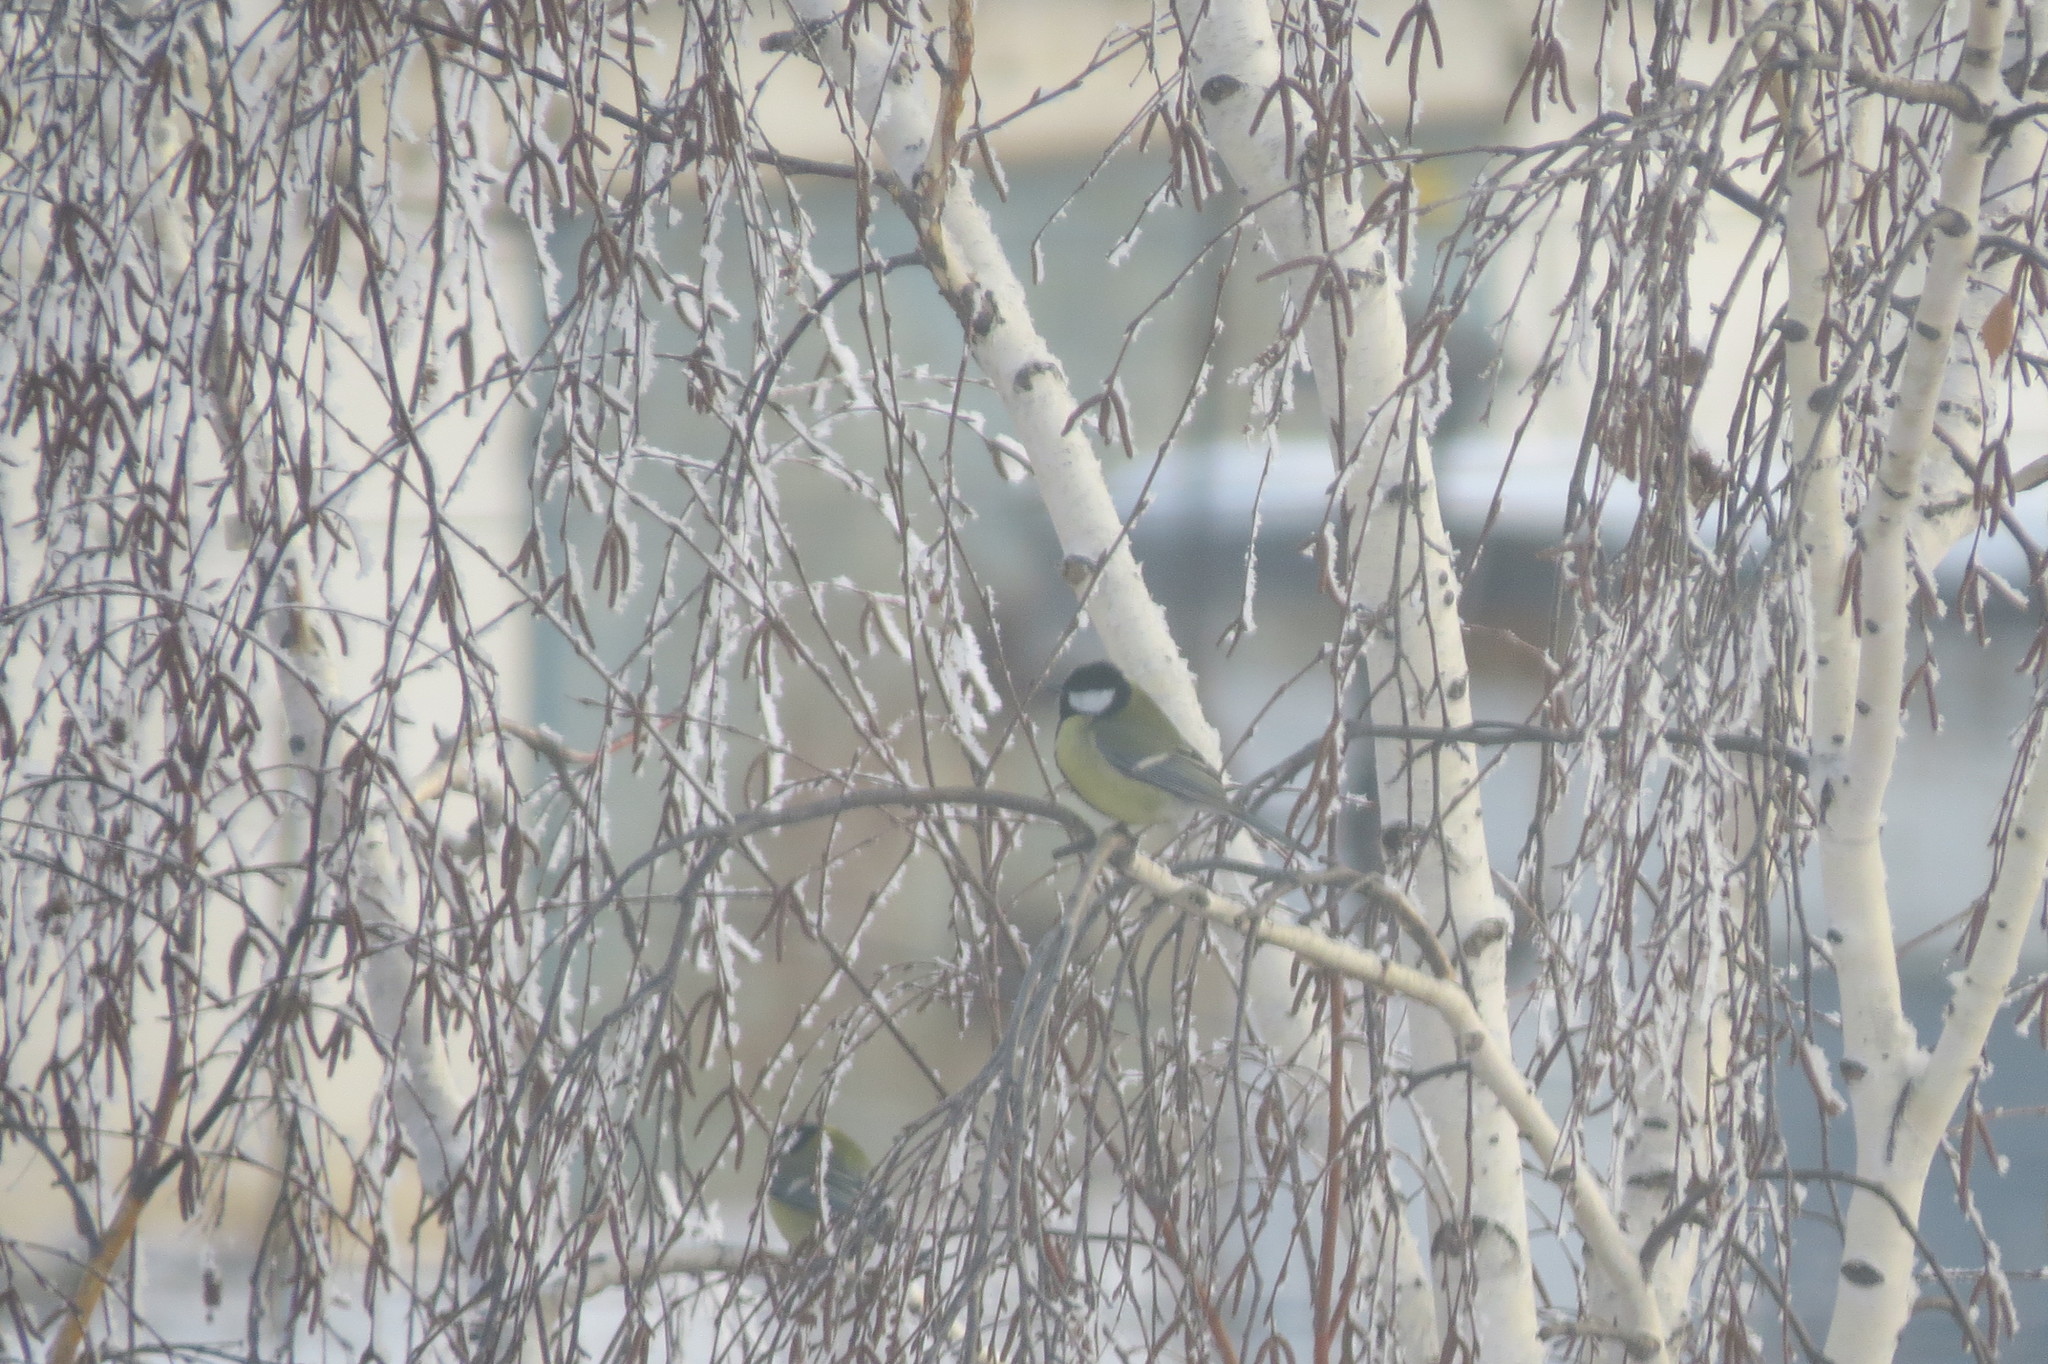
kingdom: Animalia
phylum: Chordata
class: Aves
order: Passeriformes
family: Paridae
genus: Parus
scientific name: Parus major
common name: Great tit
